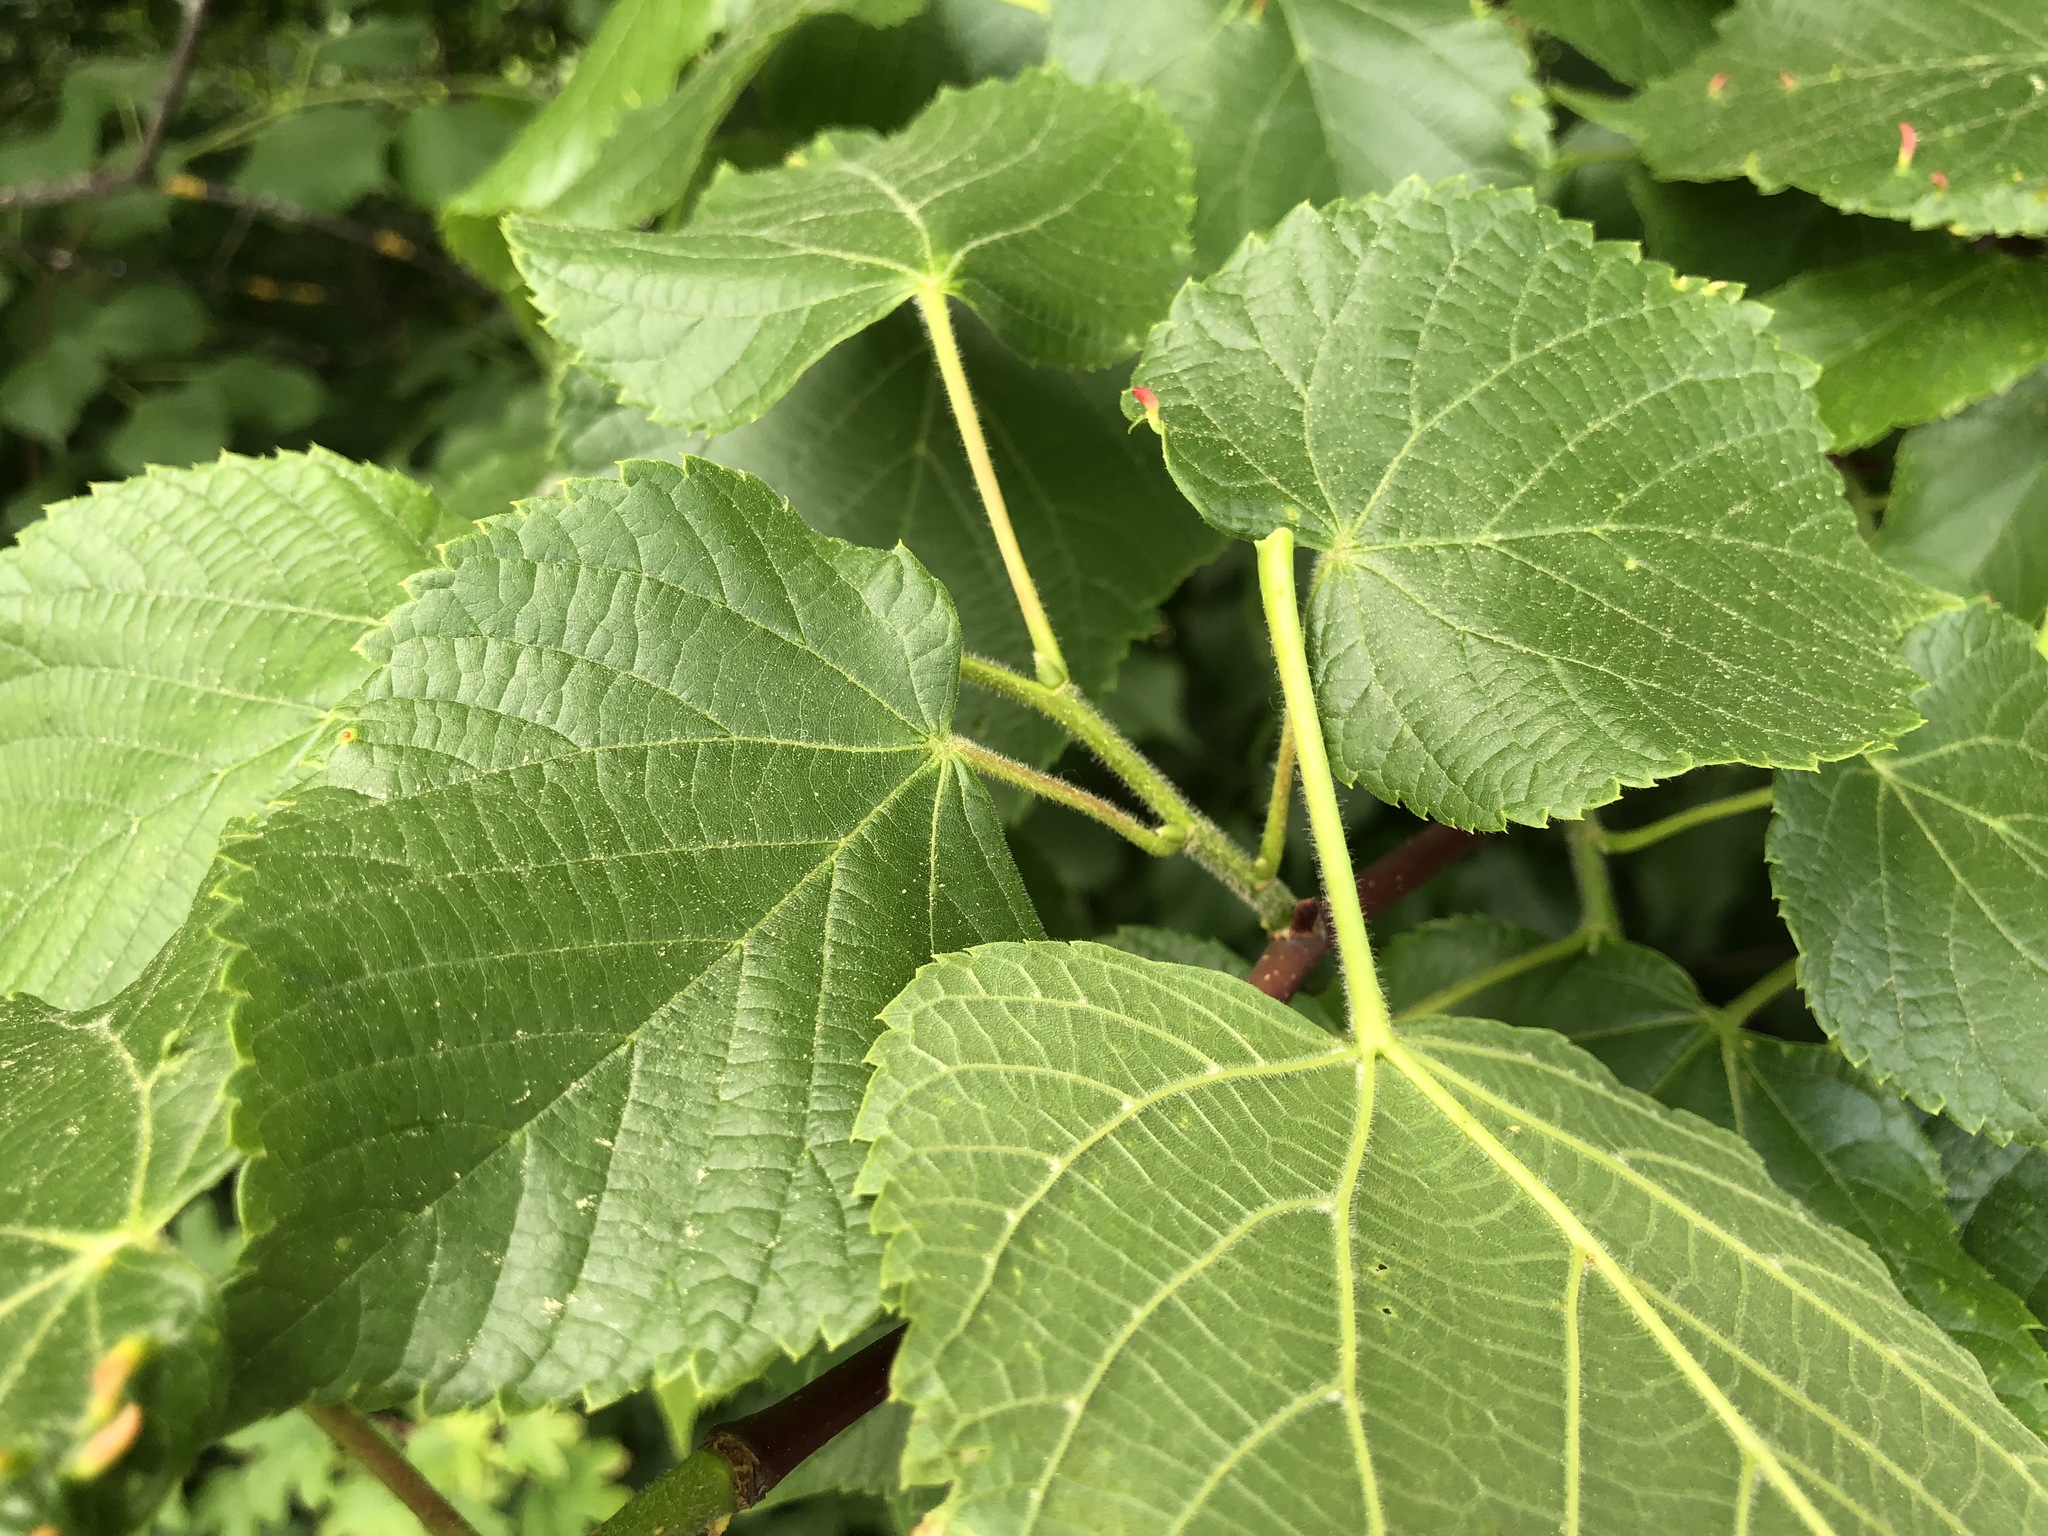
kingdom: Plantae
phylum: Tracheophyta
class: Magnoliopsida
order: Malvales
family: Malvaceae
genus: Tilia
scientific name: Tilia platyphyllos
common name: Large-leaved lime
